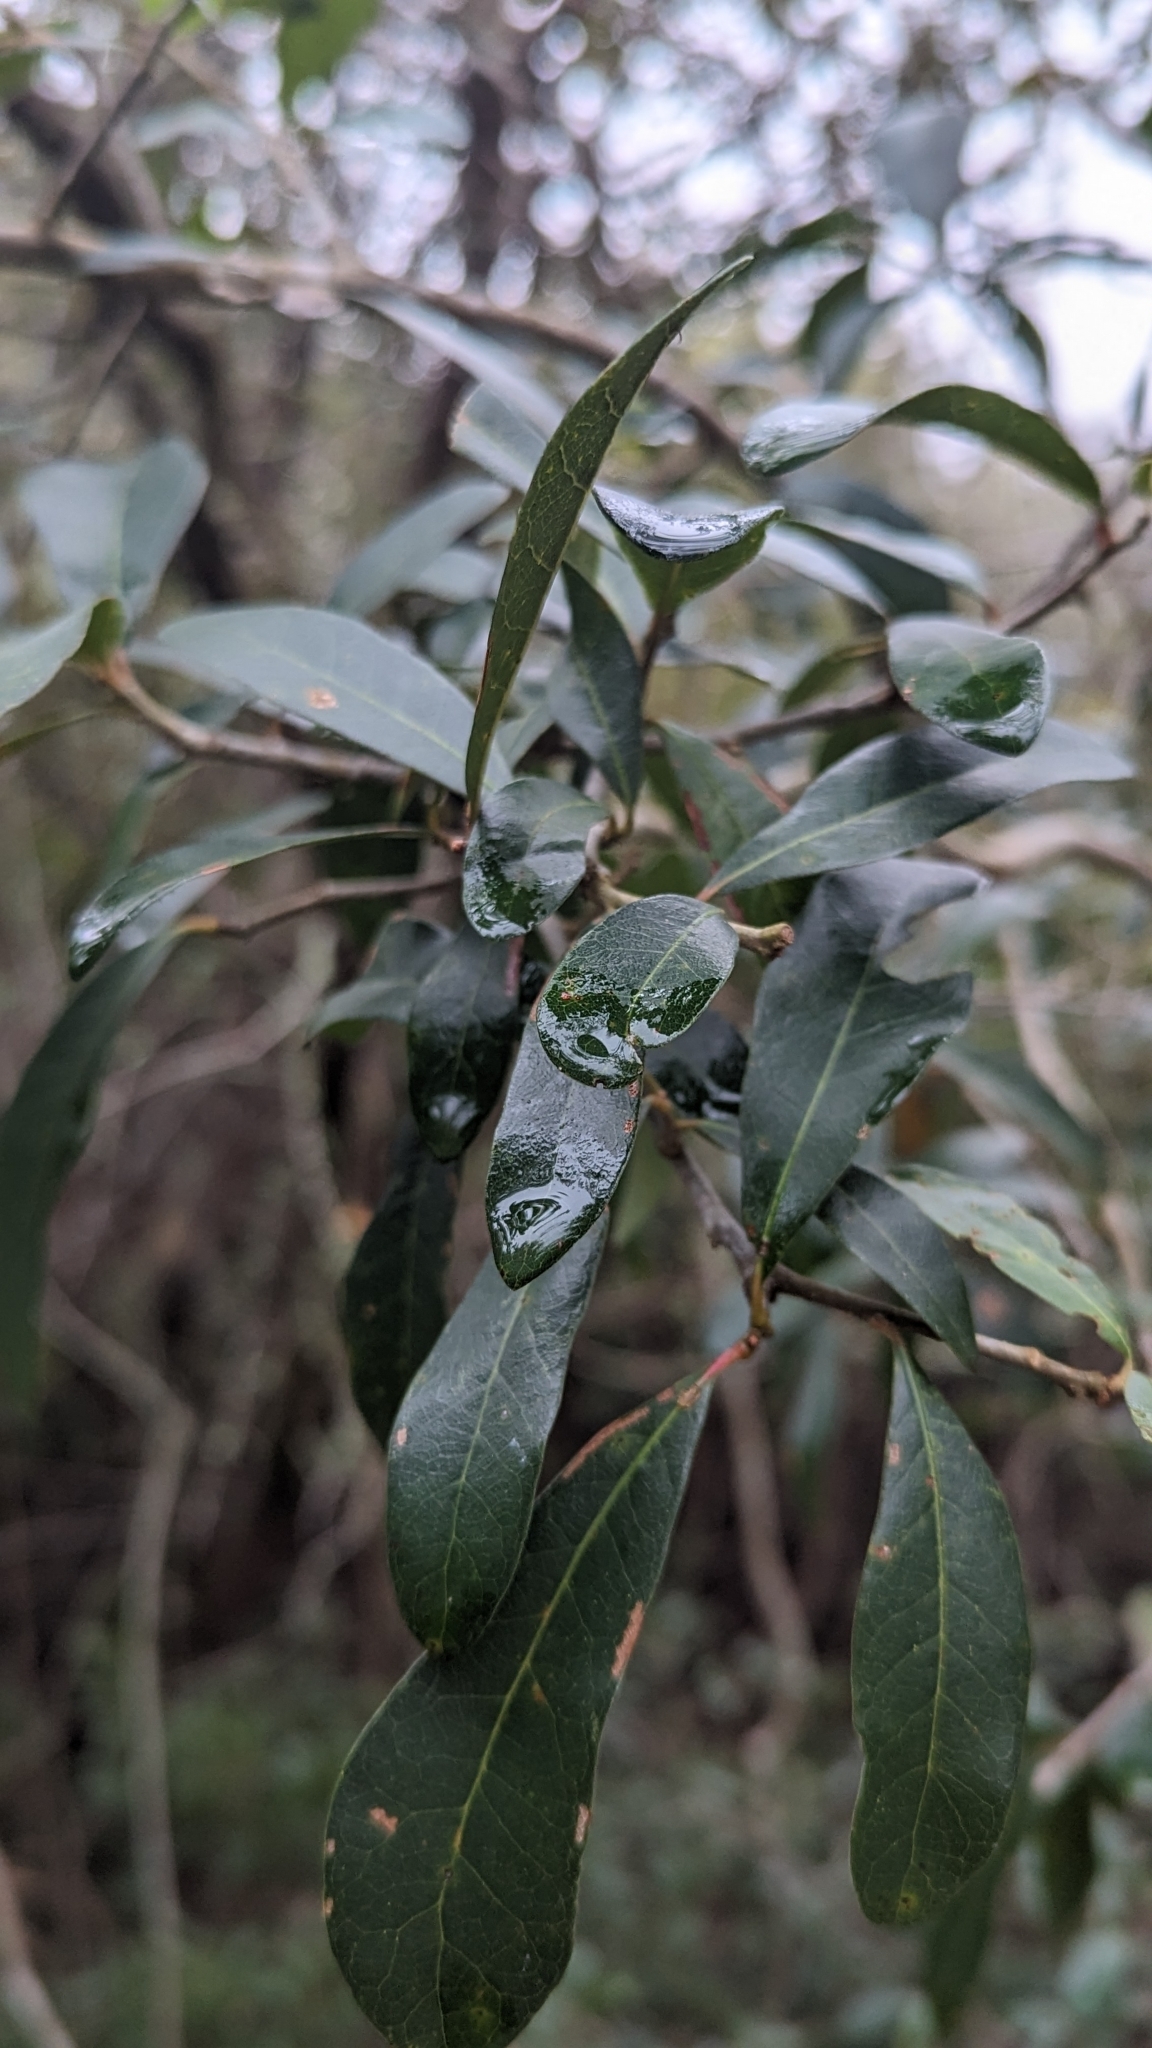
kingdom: Plantae
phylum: Tracheophyta
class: Magnoliopsida
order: Fagales
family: Fagaceae
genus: Quercus
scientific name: Quercus hemisphaerica
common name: Darlington oak
